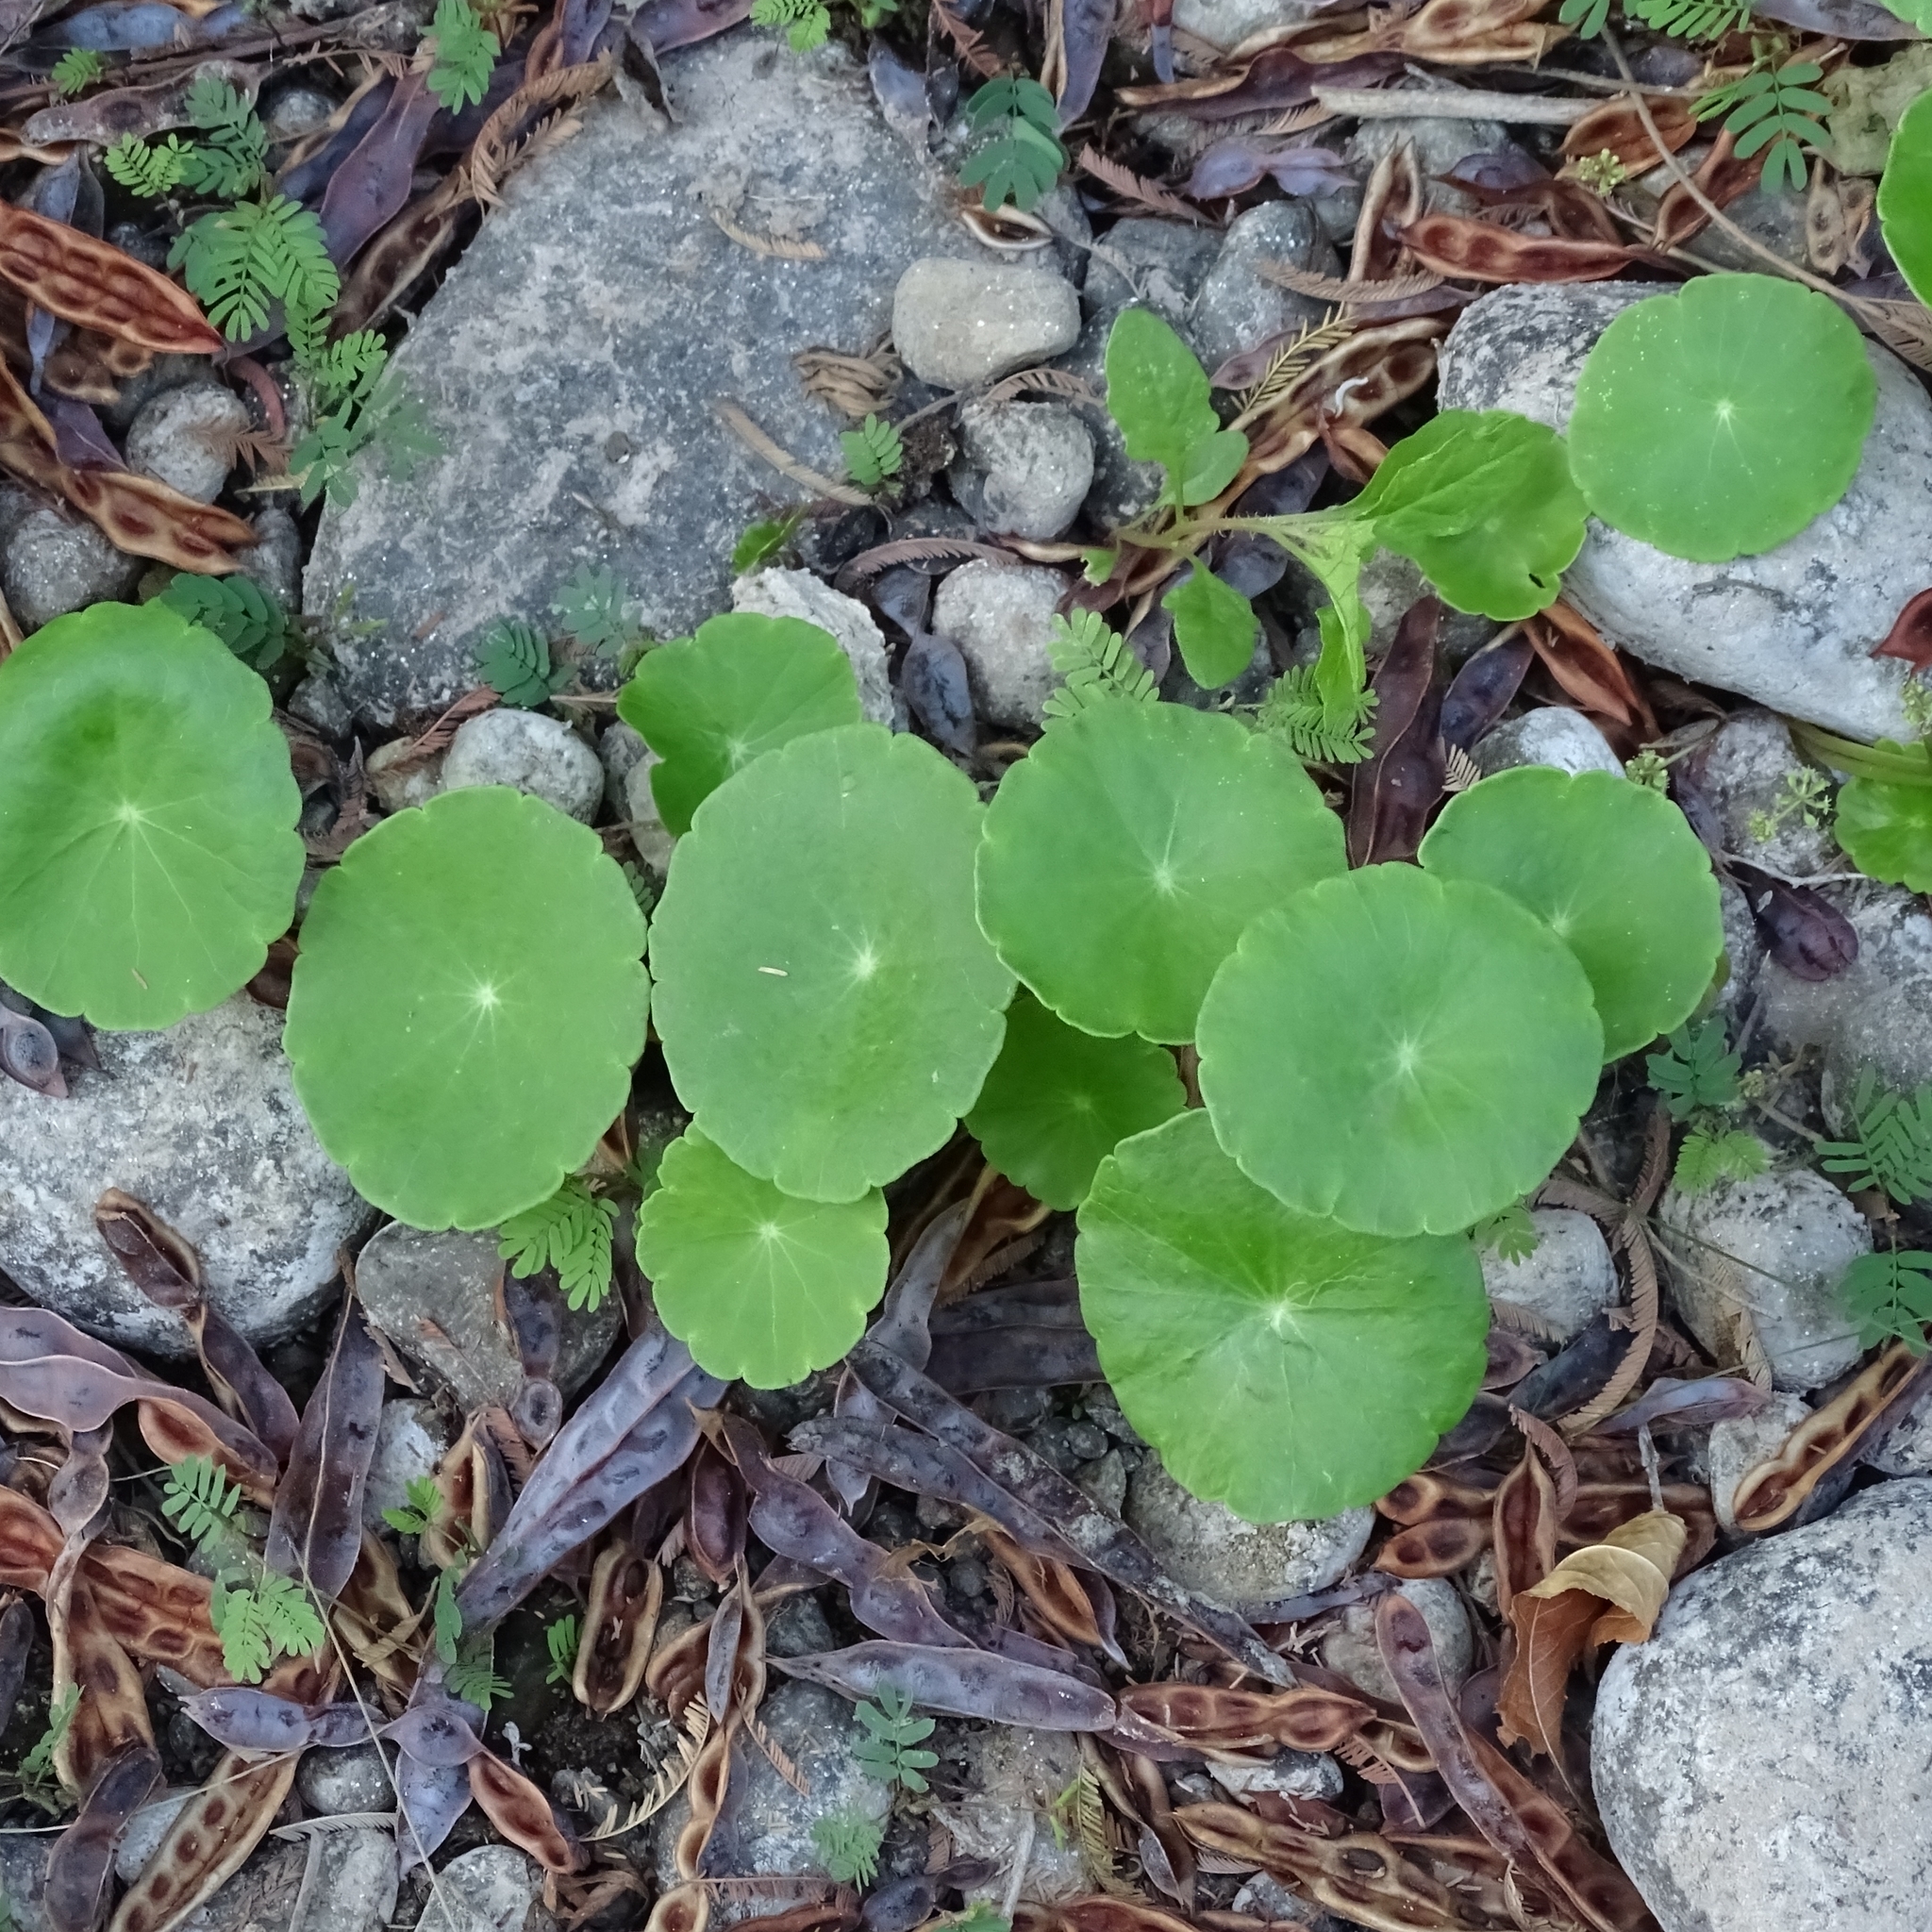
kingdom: Plantae
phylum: Tracheophyta
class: Magnoliopsida
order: Apiales
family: Araliaceae
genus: Hydrocotyle
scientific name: Hydrocotyle verticillata
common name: Whorled marshpennywort
